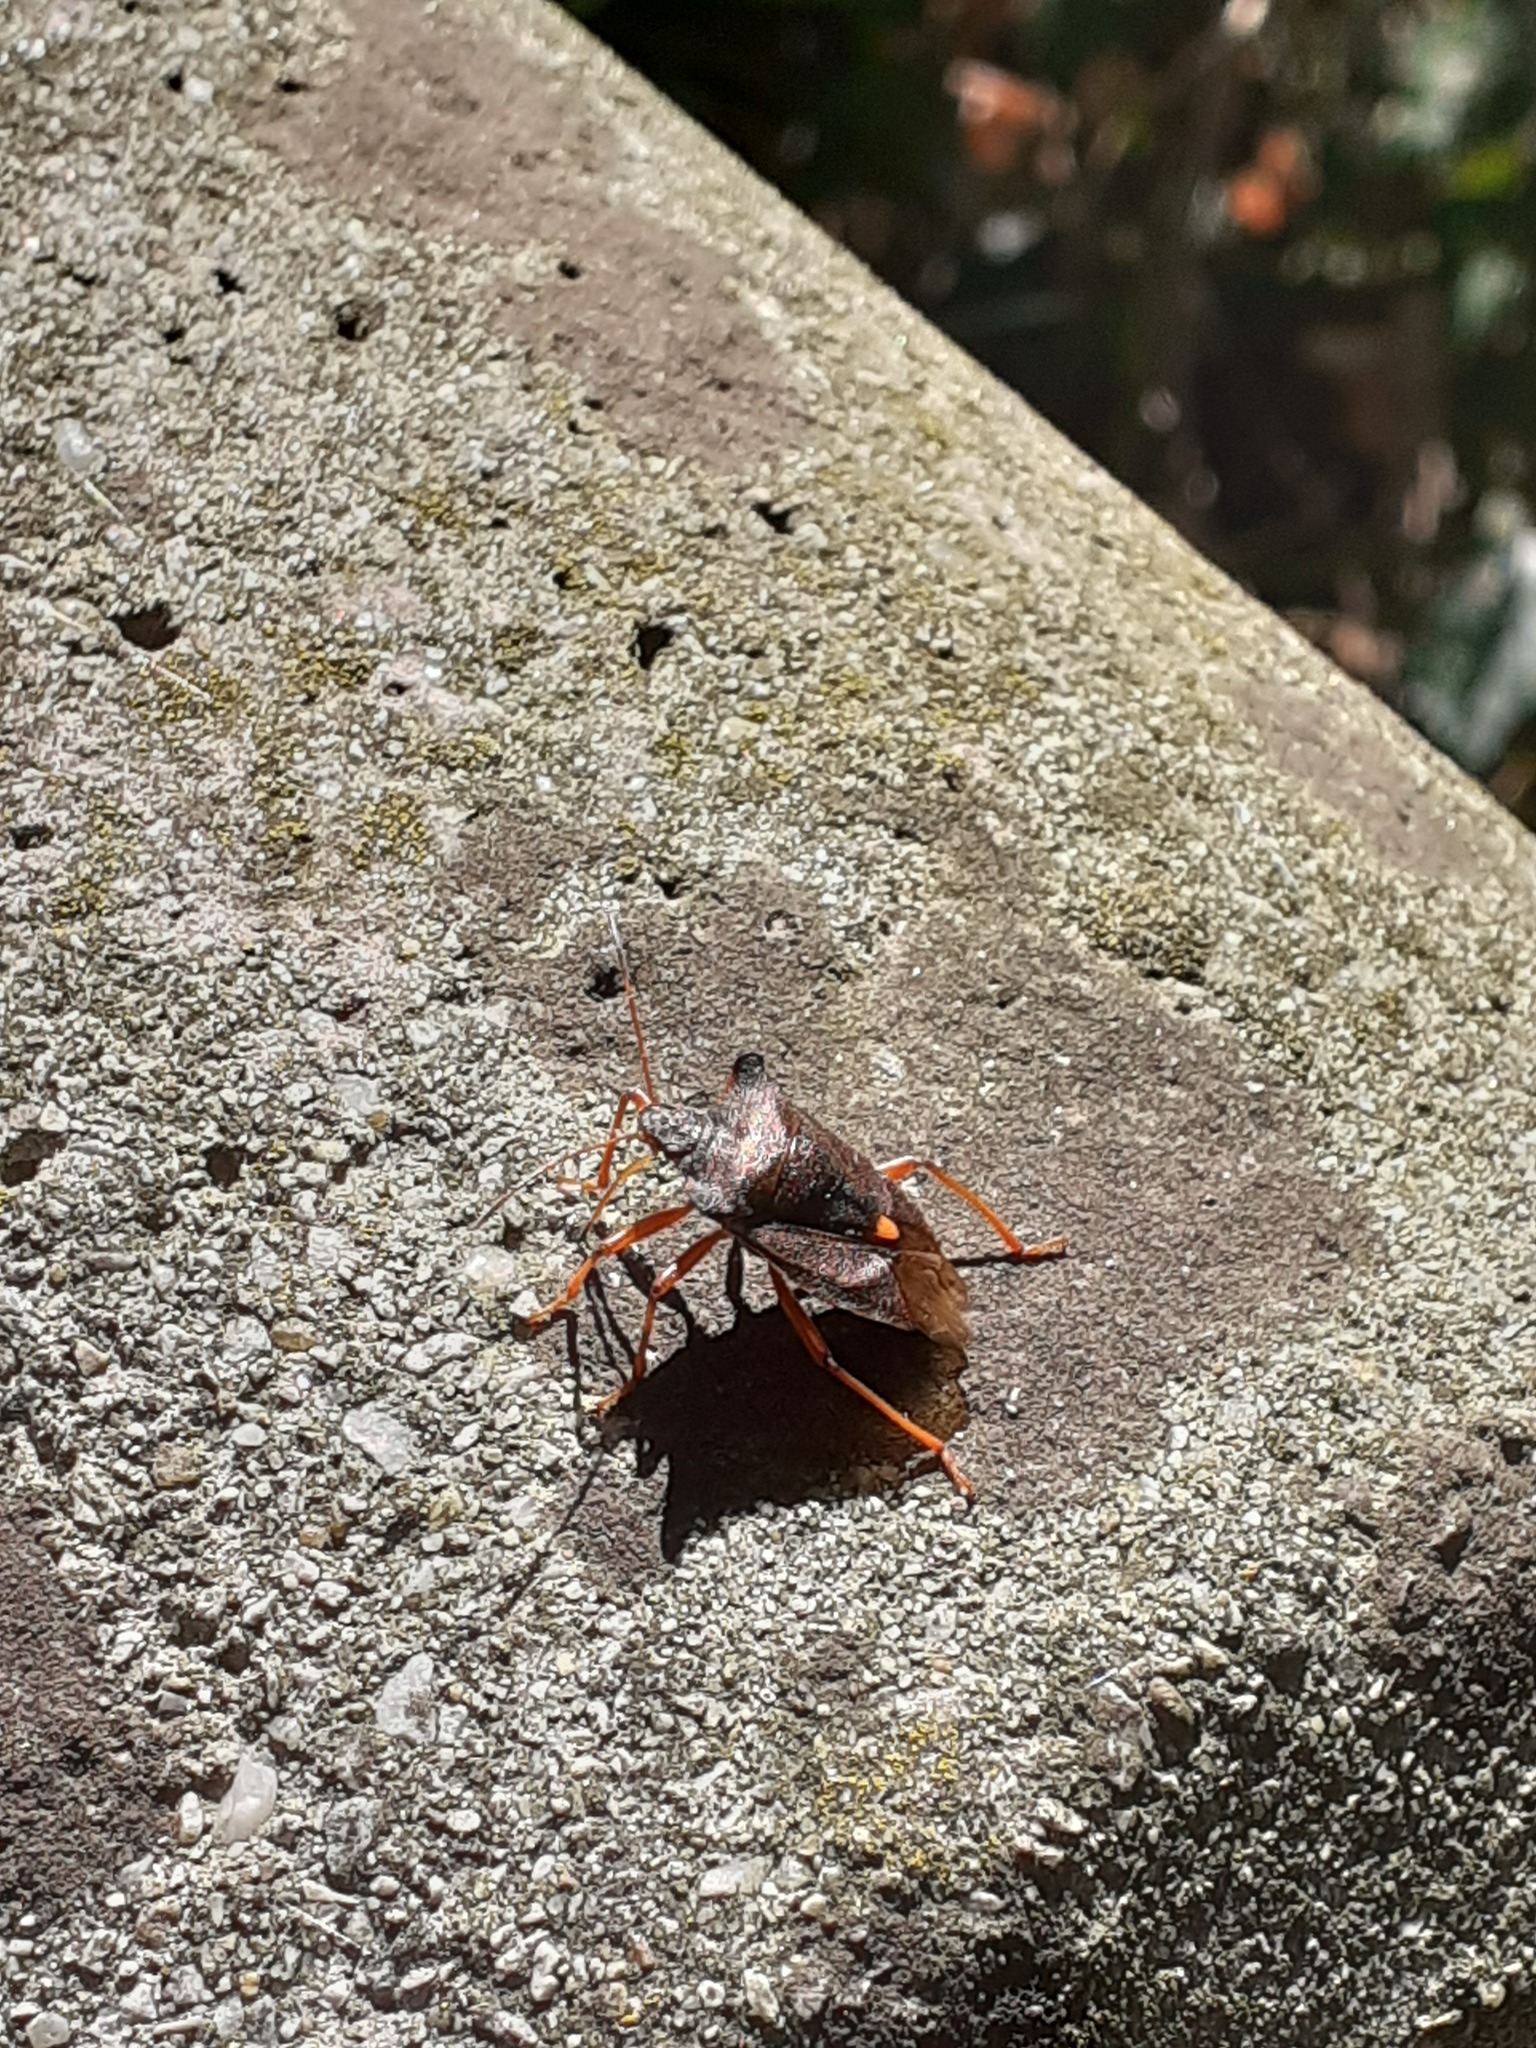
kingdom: Animalia
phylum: Arthropoda
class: Insecta
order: Hemiptera
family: Pentatomidae
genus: Pentatoma
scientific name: Pentatoma rufipes
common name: Forest bug
